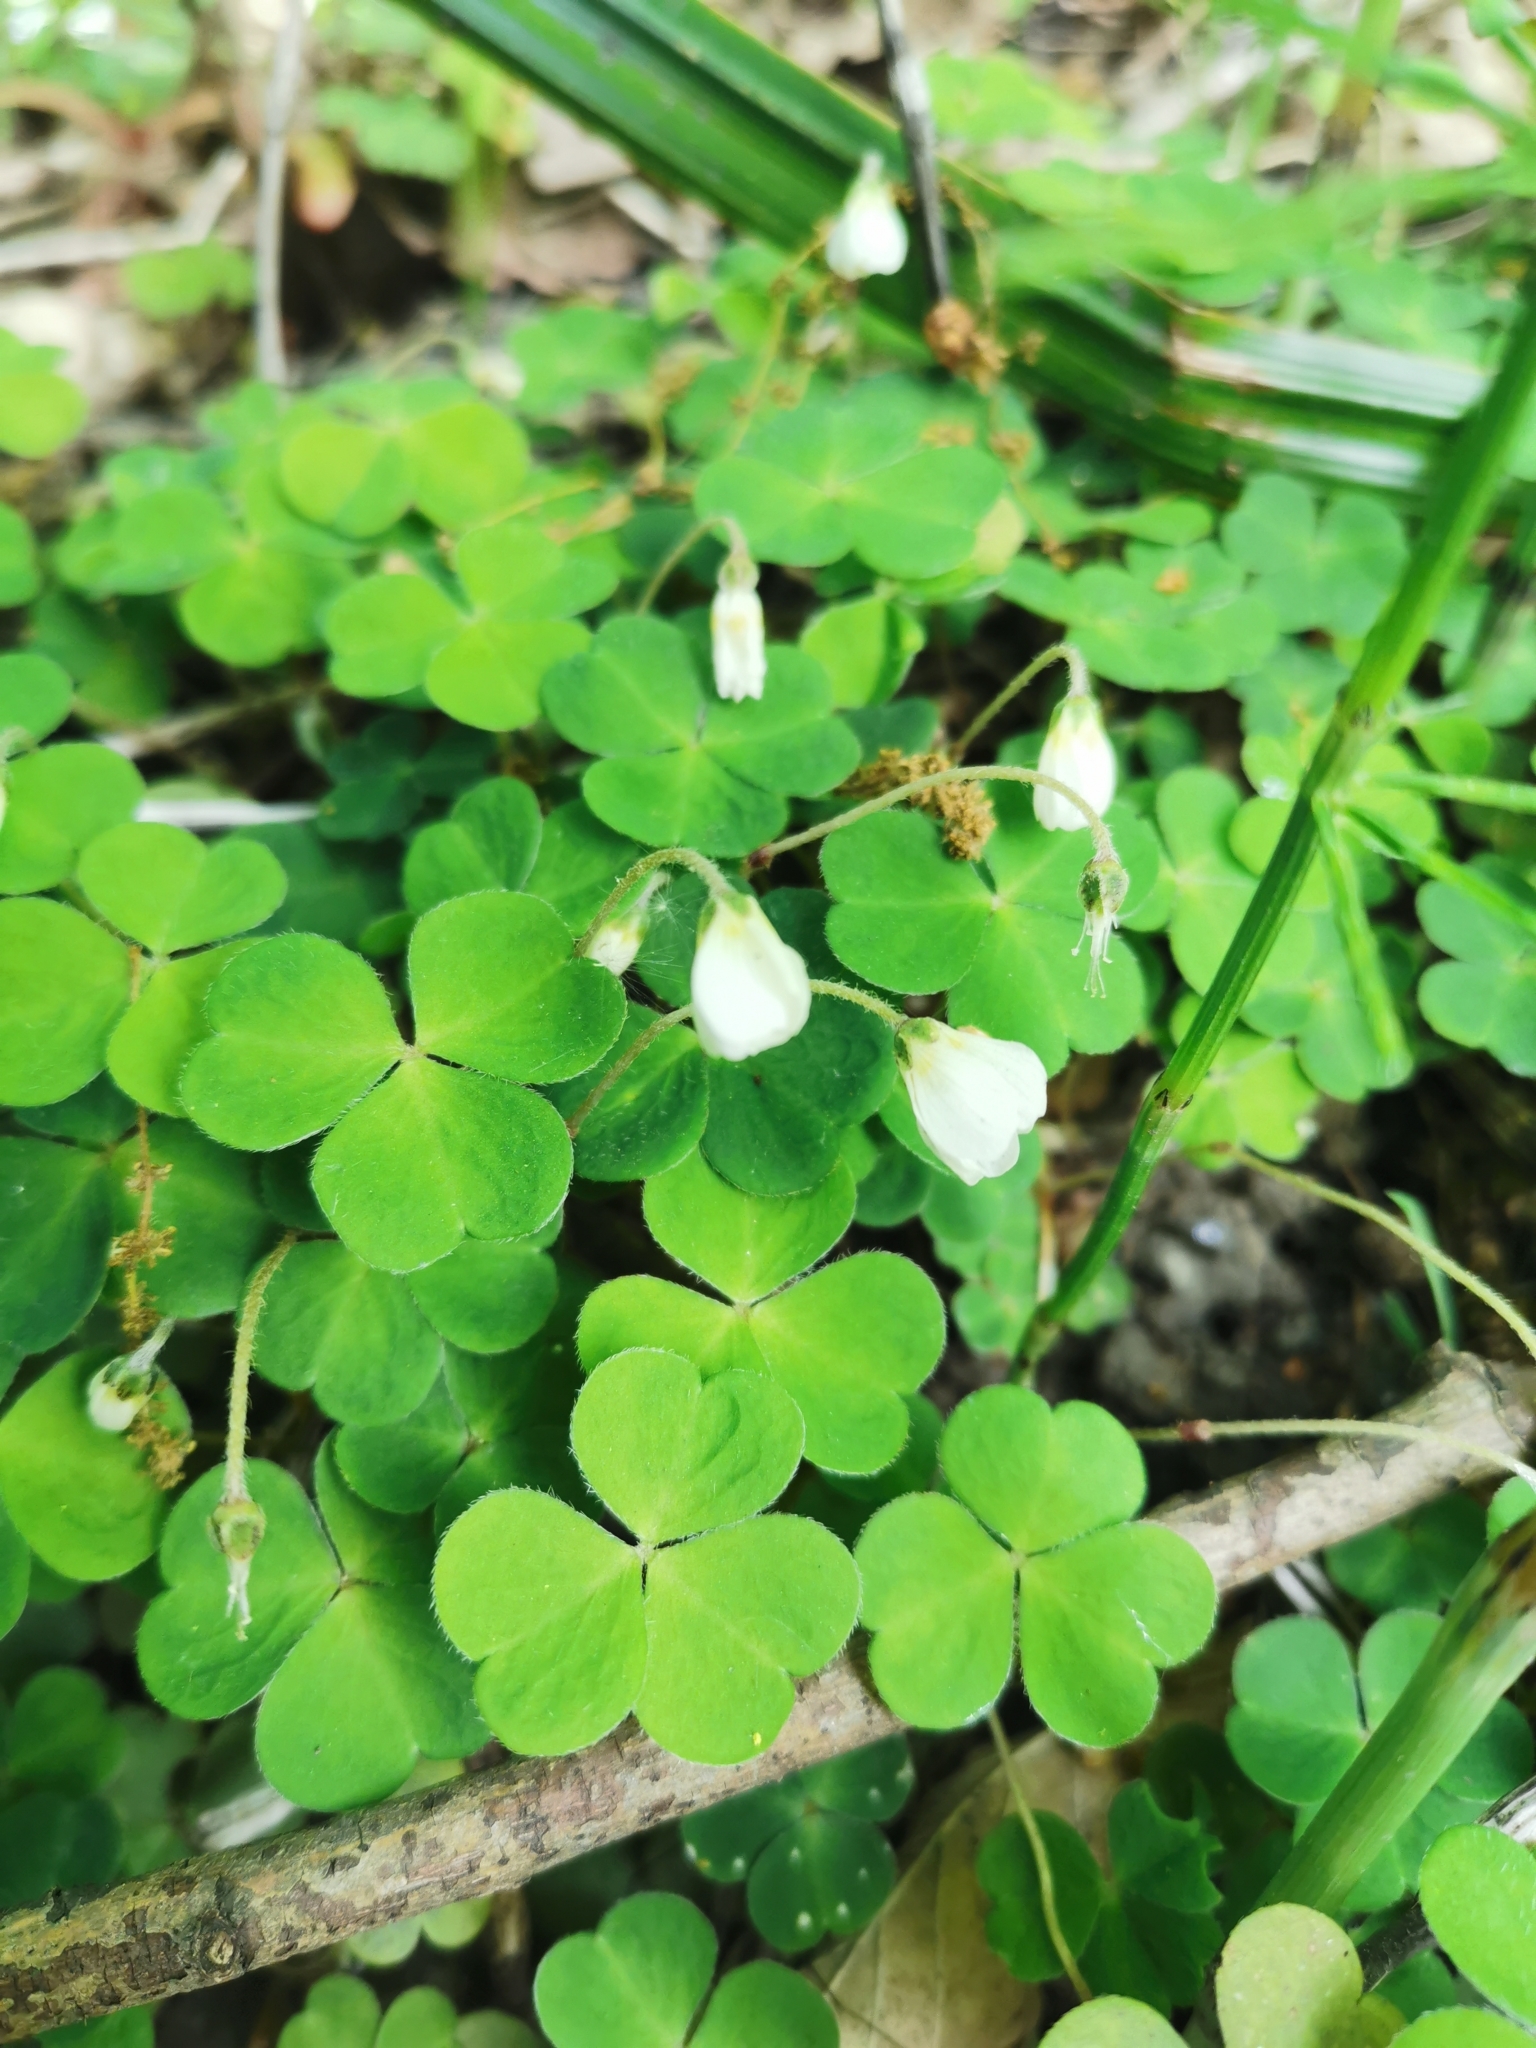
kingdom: Plantae
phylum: Tracheophyta
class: Magnoliopsida
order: Oxalidales
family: Oxalidaceae
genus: Oxalis
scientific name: Oxalis acetosella
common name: Wood-sorrel
